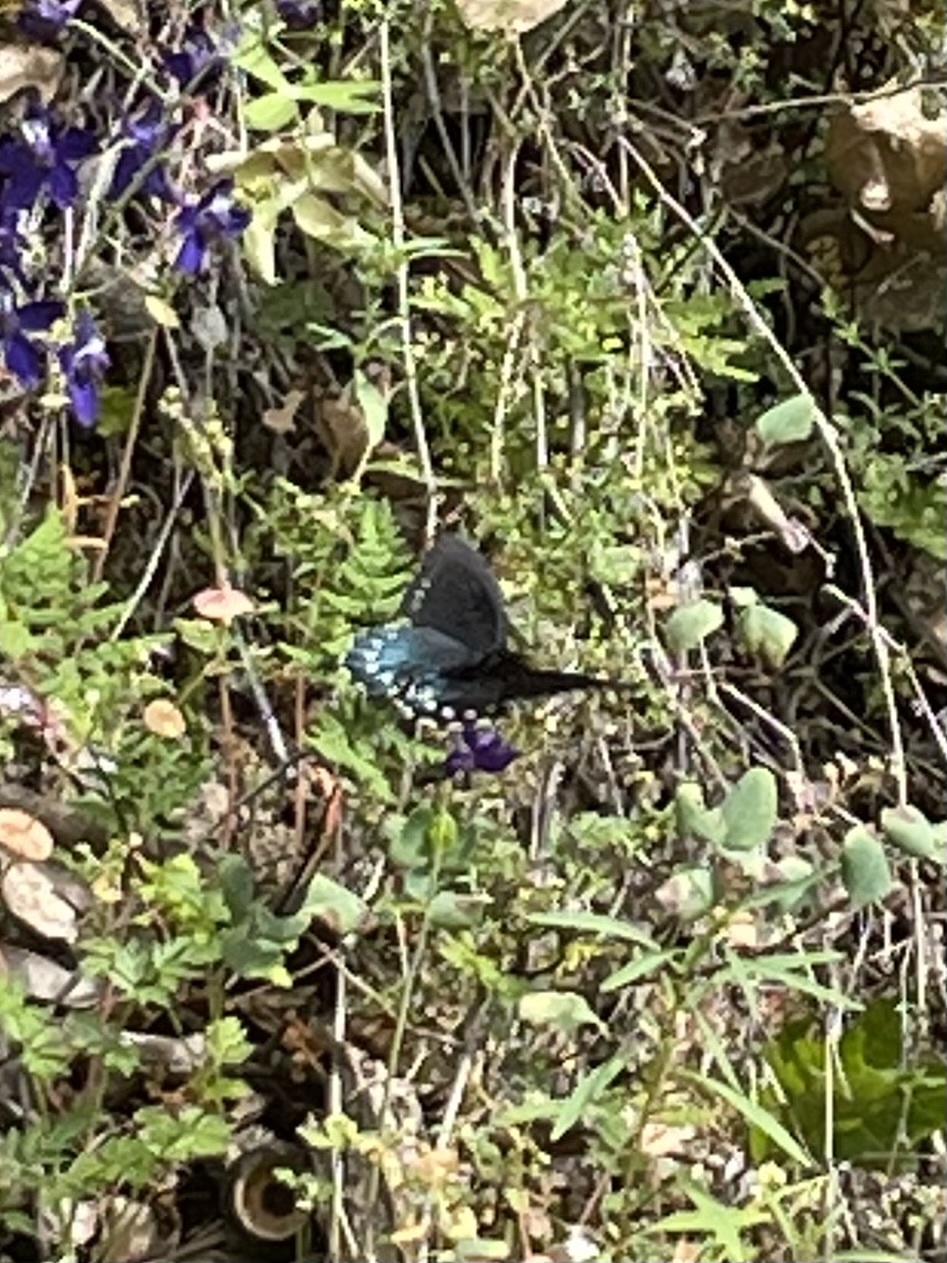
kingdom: Animalia
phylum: Arthropoda
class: Insecta
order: Lepidoptera
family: Papilionidae
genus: Battus
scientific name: Battus philenor
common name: Pipevine swallowtail
